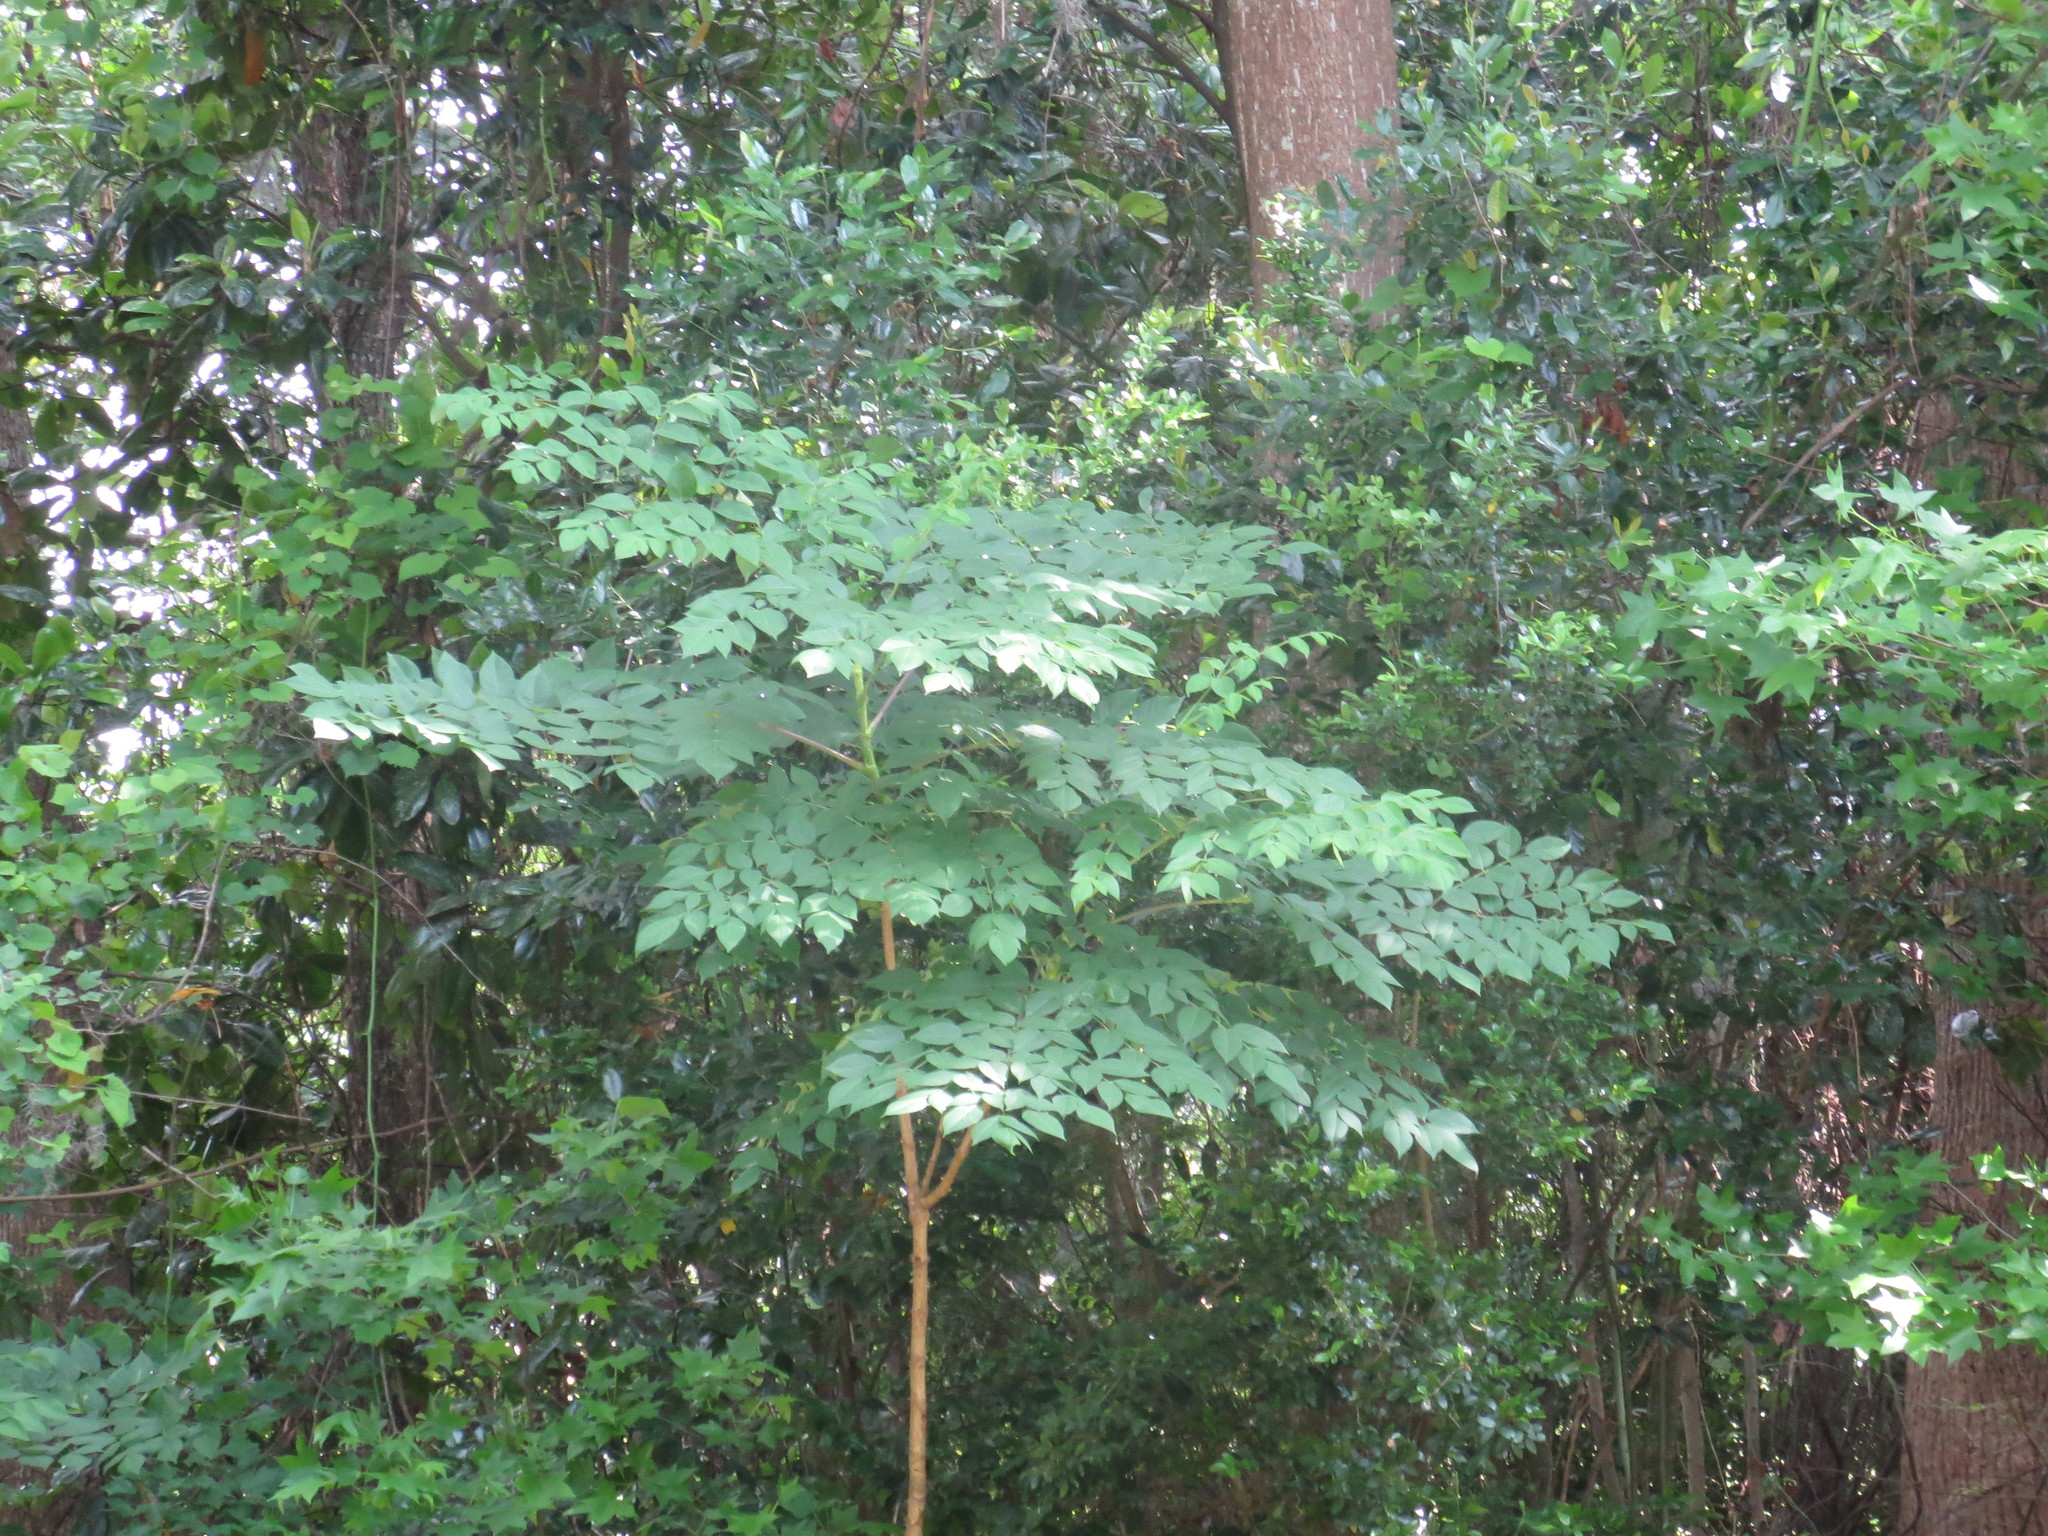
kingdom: Plantae
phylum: Tracheophyta
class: Magnoliopsida
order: Apiales
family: Araliaceae
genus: Aralia
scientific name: Aralia spinosa
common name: Hercules'-club
